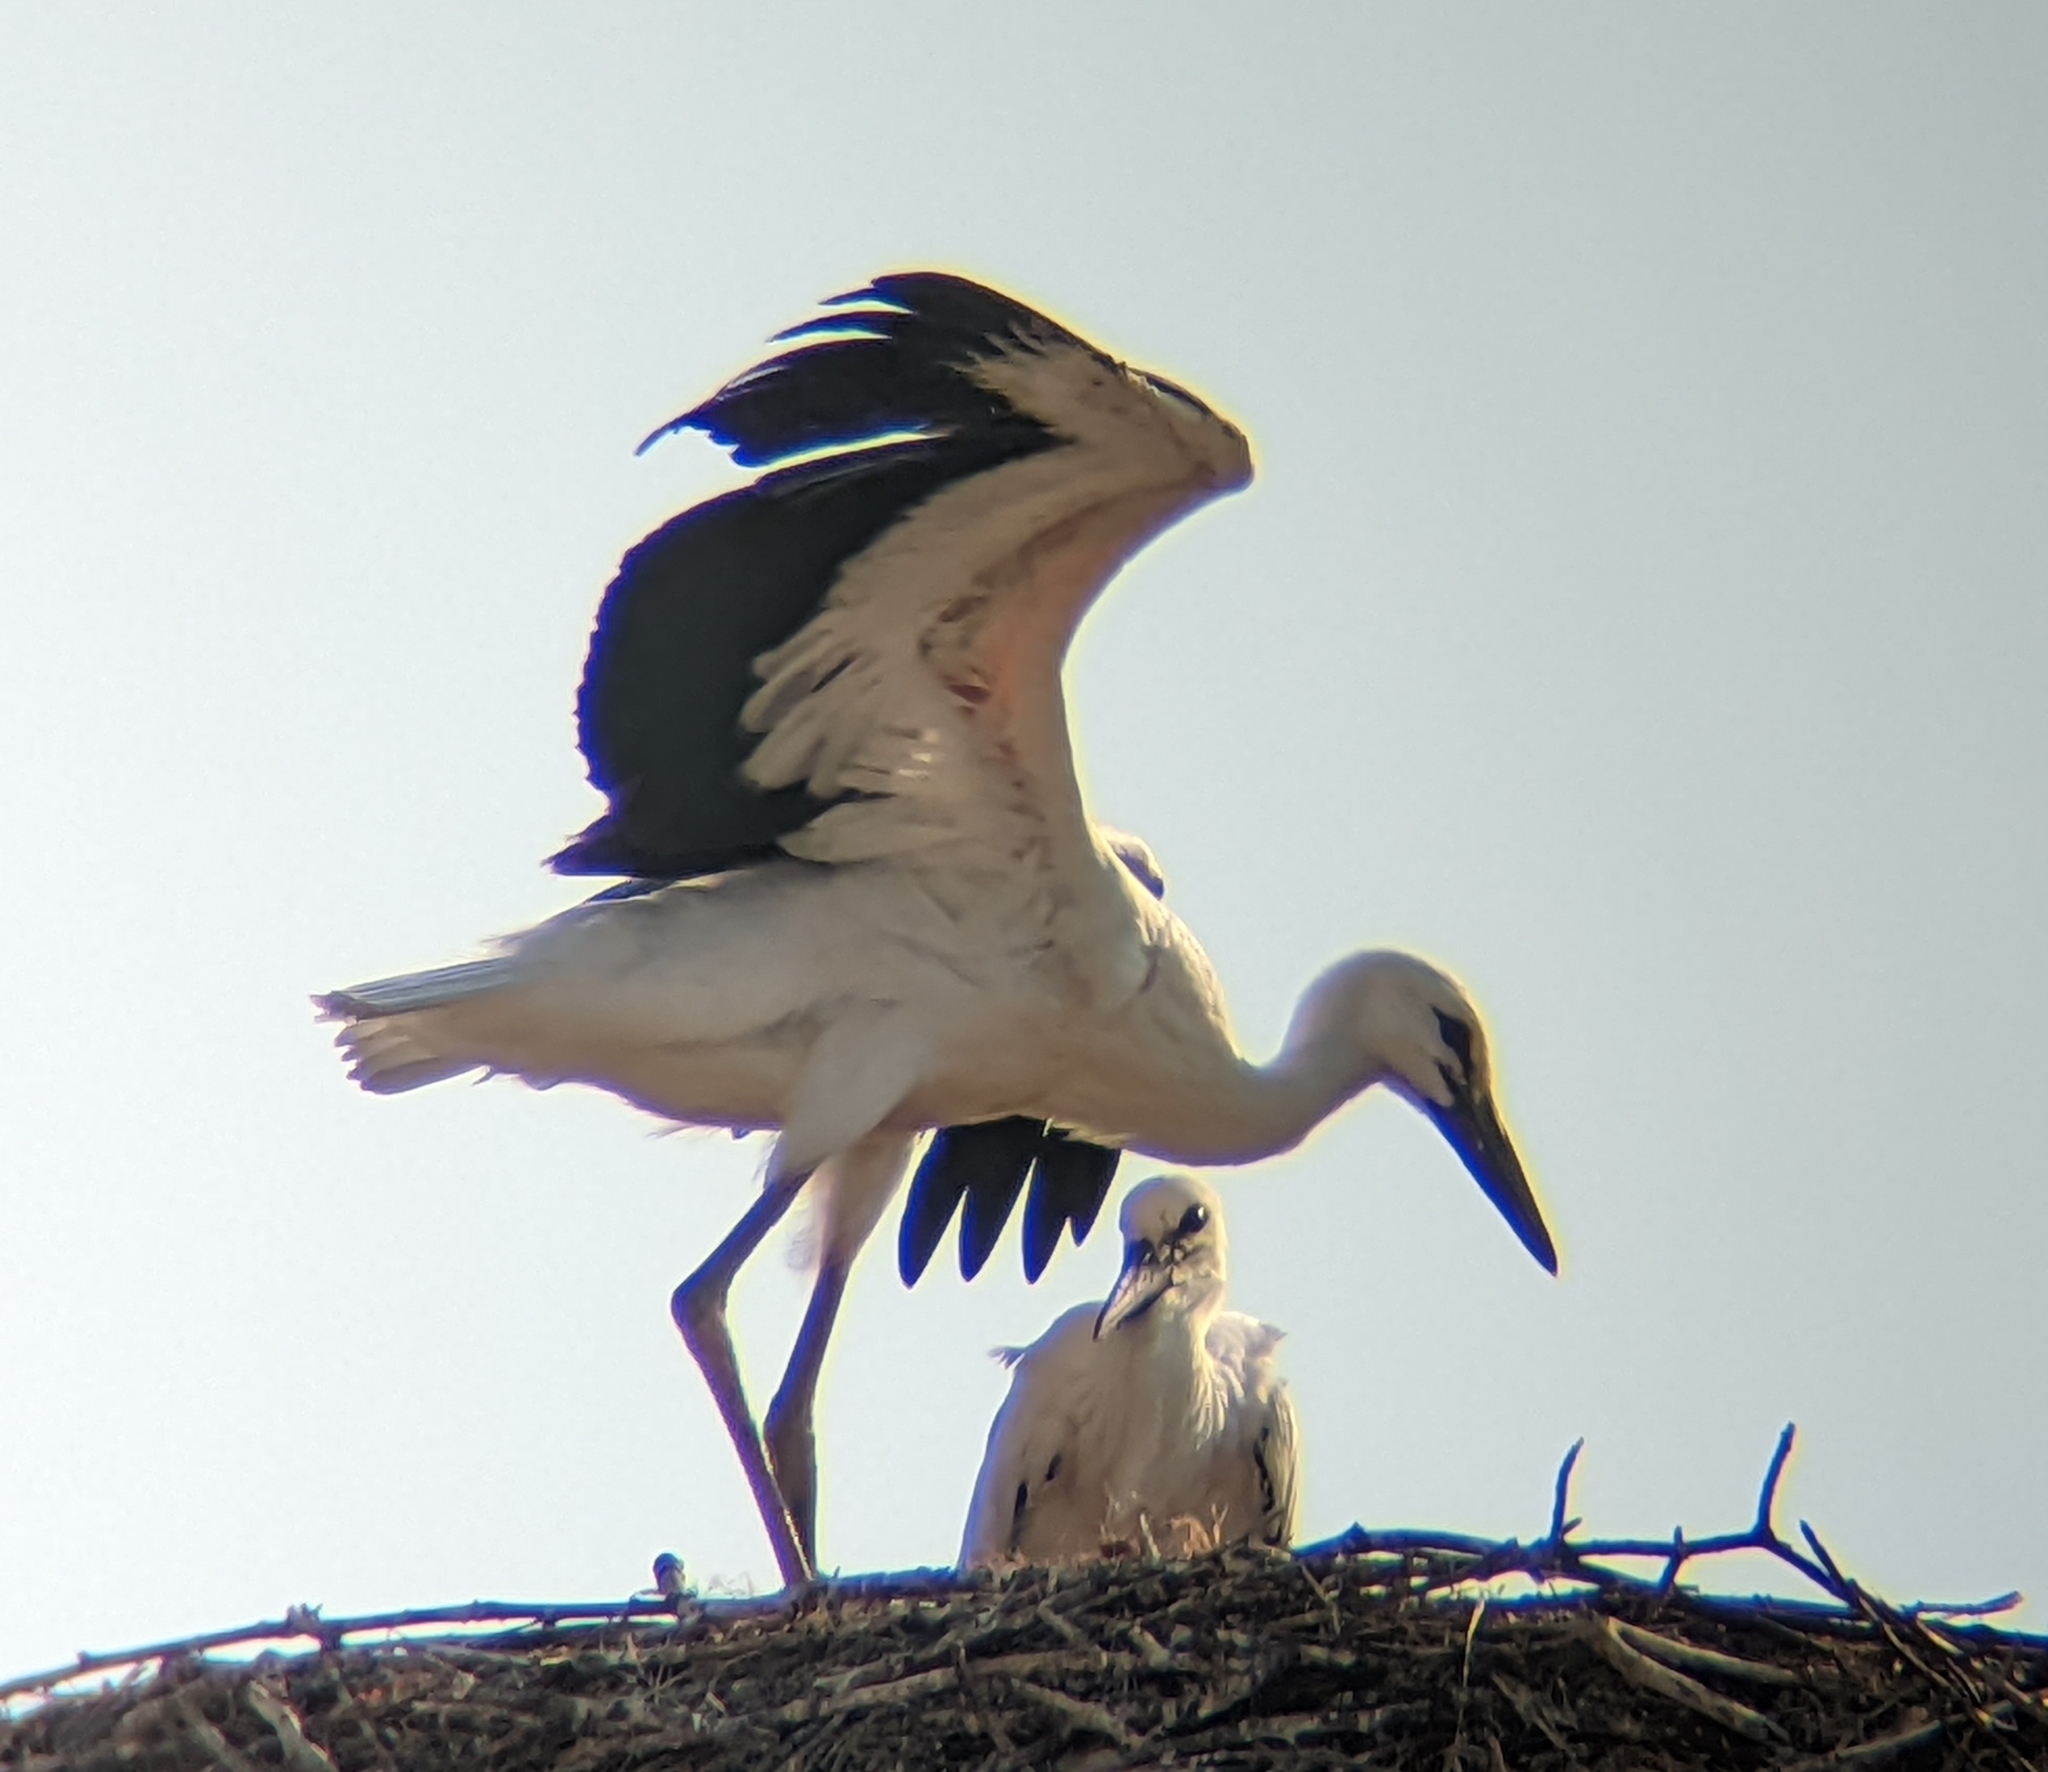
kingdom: Animalia
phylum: Chordata
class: Aves
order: Ciconiiformes
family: Ciconiidae
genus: Ciconia
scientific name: Ciconia ciconia
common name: White stork
